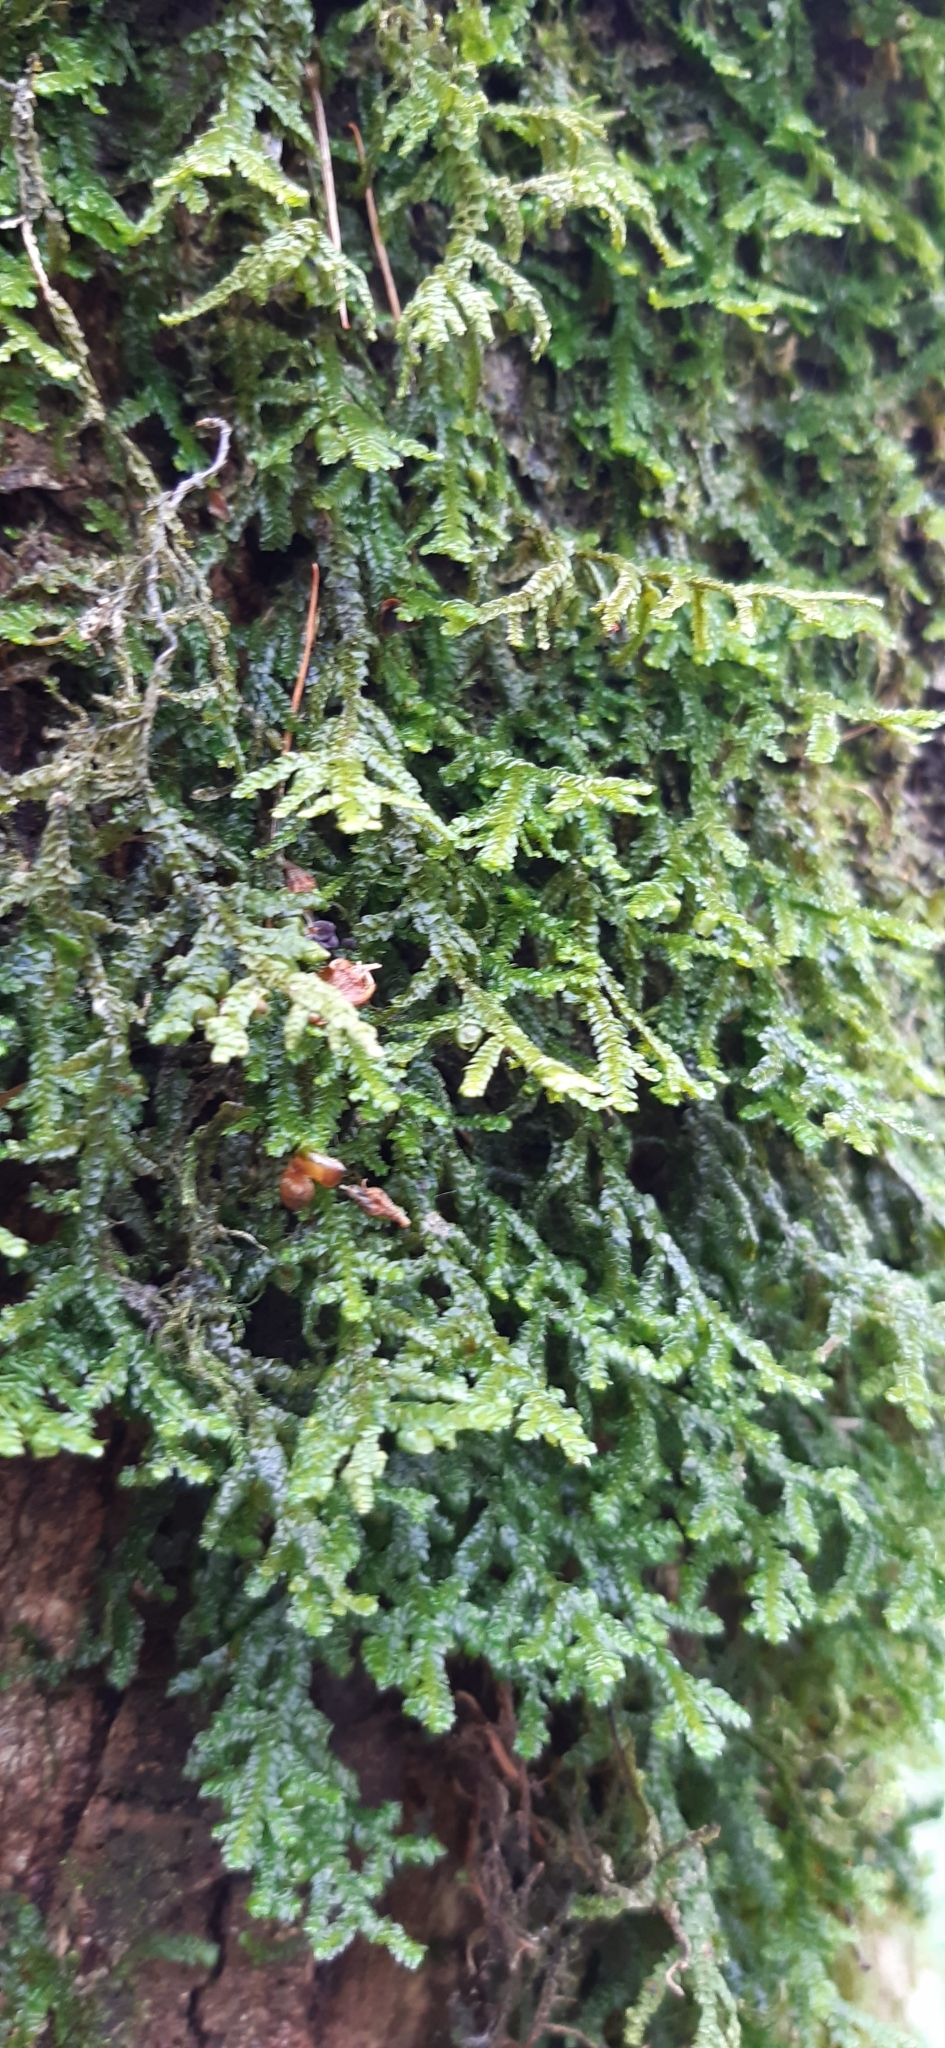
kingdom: Plantae
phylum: Marchantiophyta
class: Jungermanniopsida
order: Porellales
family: Porellaceae
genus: Porella
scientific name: Porella platyphylla
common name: Wall scalewort
